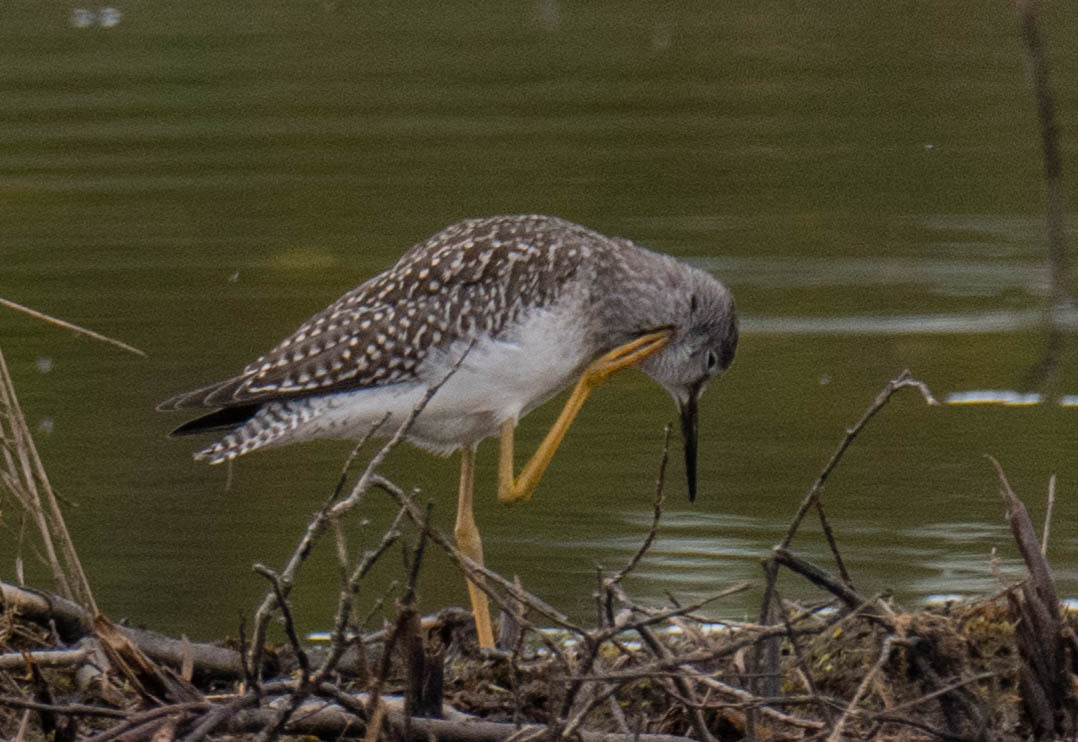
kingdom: Animalia
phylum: Chordata
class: Aves
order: Charadriiformes
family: Scolopacidae
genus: Tringa
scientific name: Tringa flavipes
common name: Lesser yellowlegs
